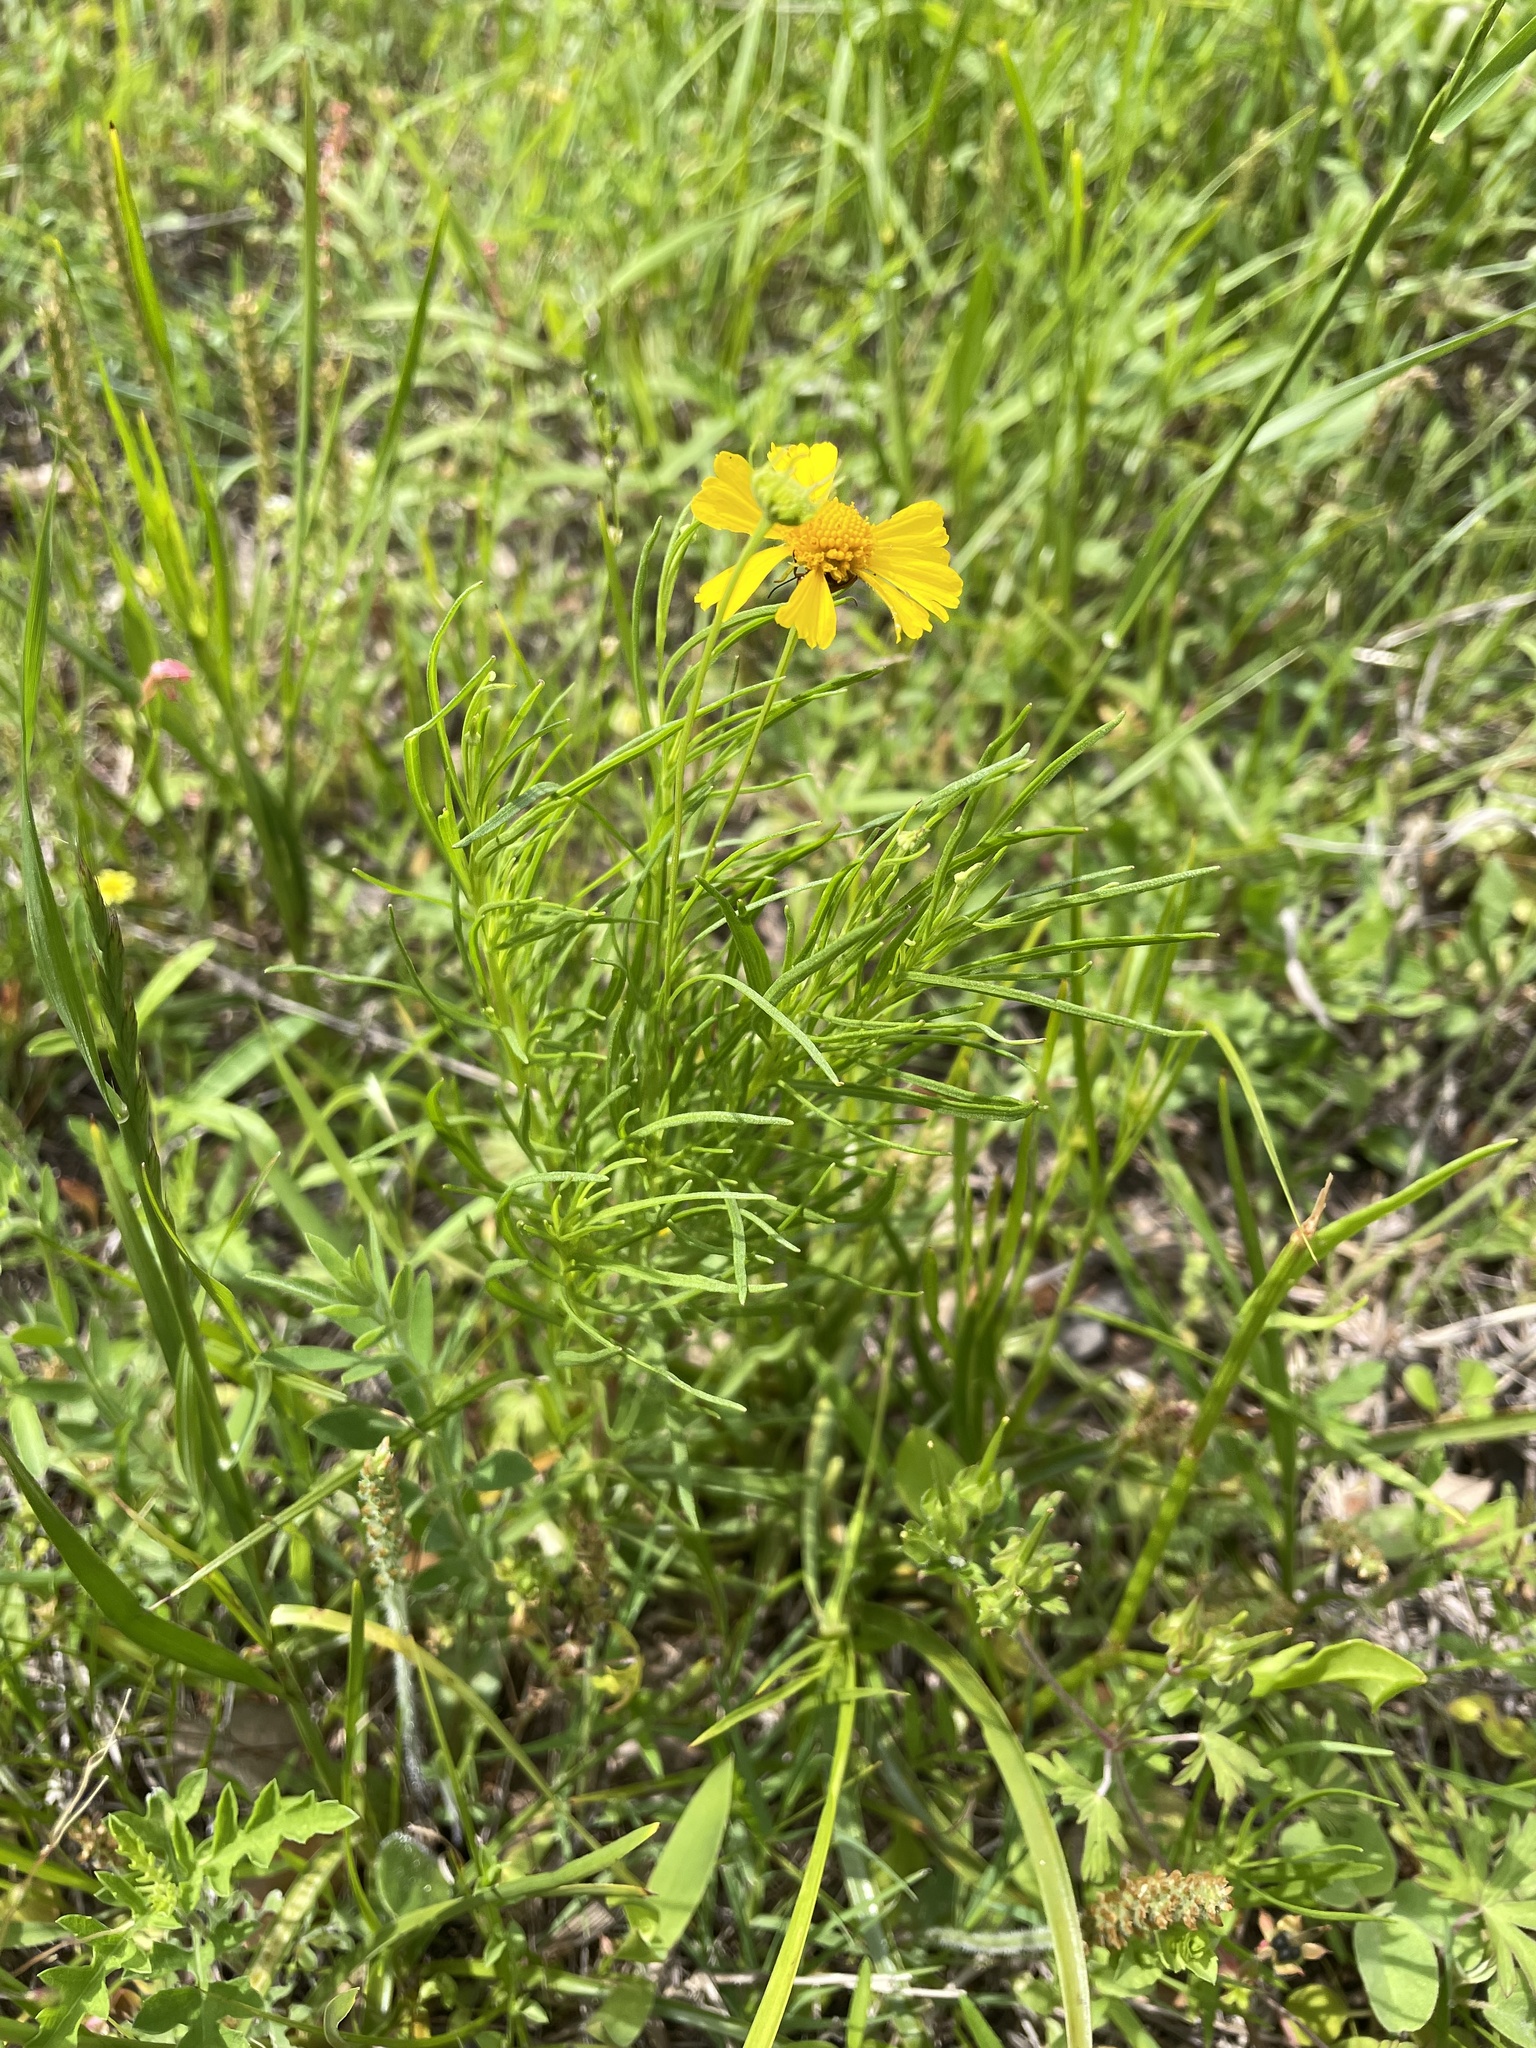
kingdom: Plantae
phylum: Tracheophyta
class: Magnoliopsida
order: Asterales
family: Asteraceae
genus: Helenium
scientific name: Helenium amarum
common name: Bitter sneezeweed
